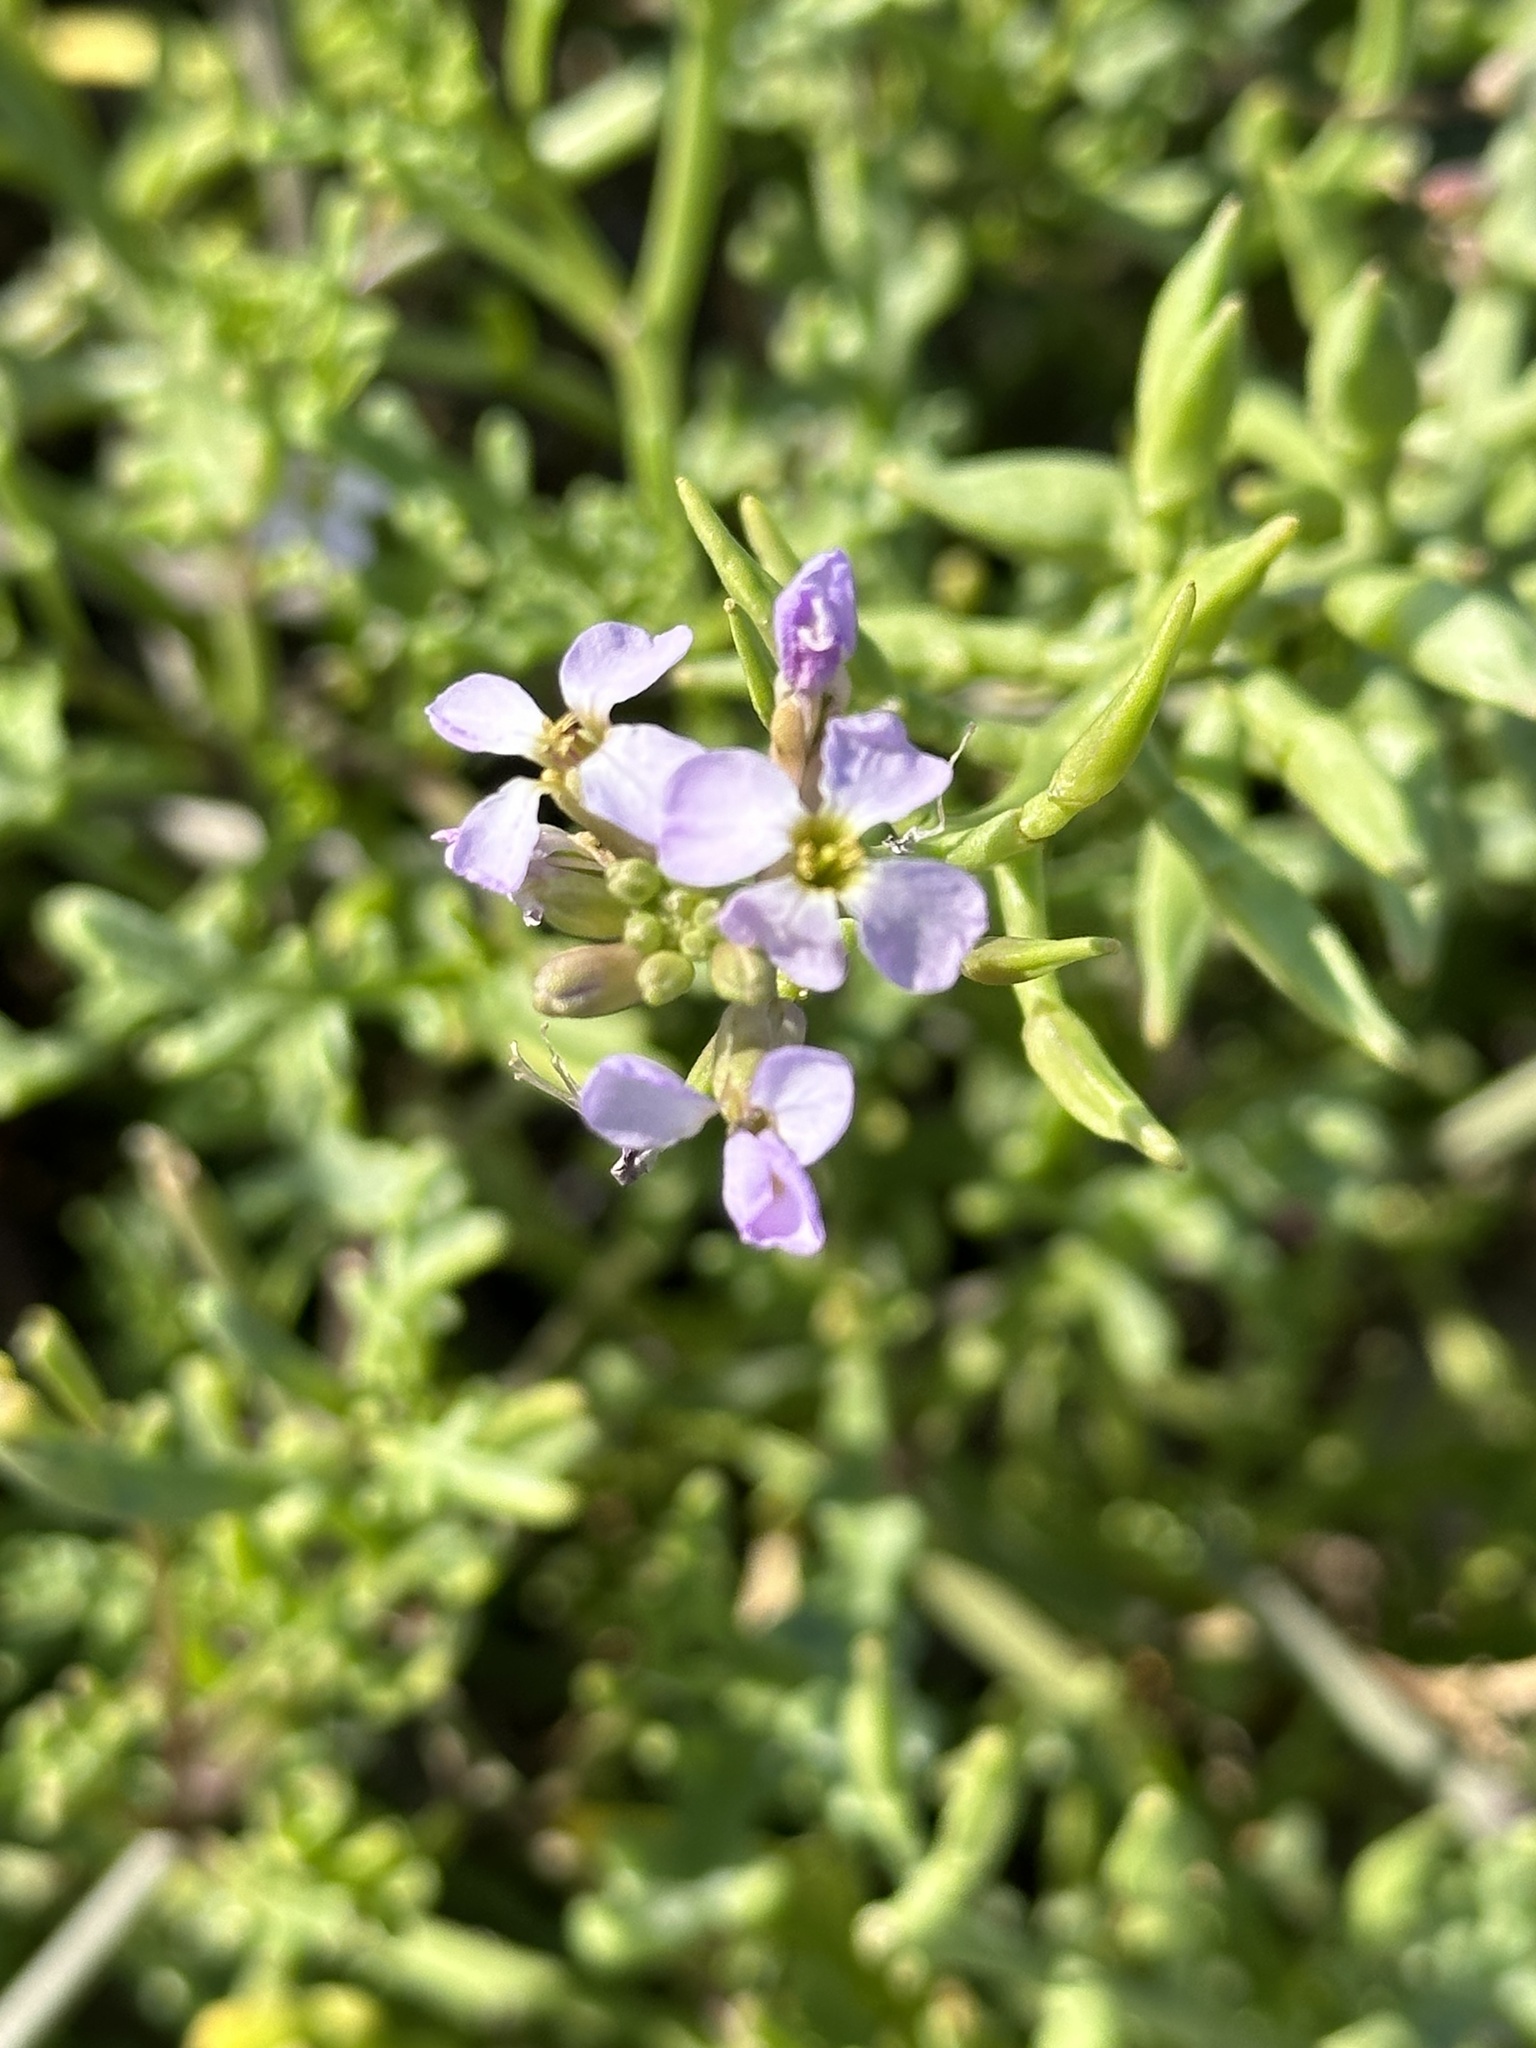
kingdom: Plantae
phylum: Tracheophyta
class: Magnoliopsida
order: Brassicales
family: Brassicaceae
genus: Cakile
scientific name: Cakile maritima
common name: Sea rocket
